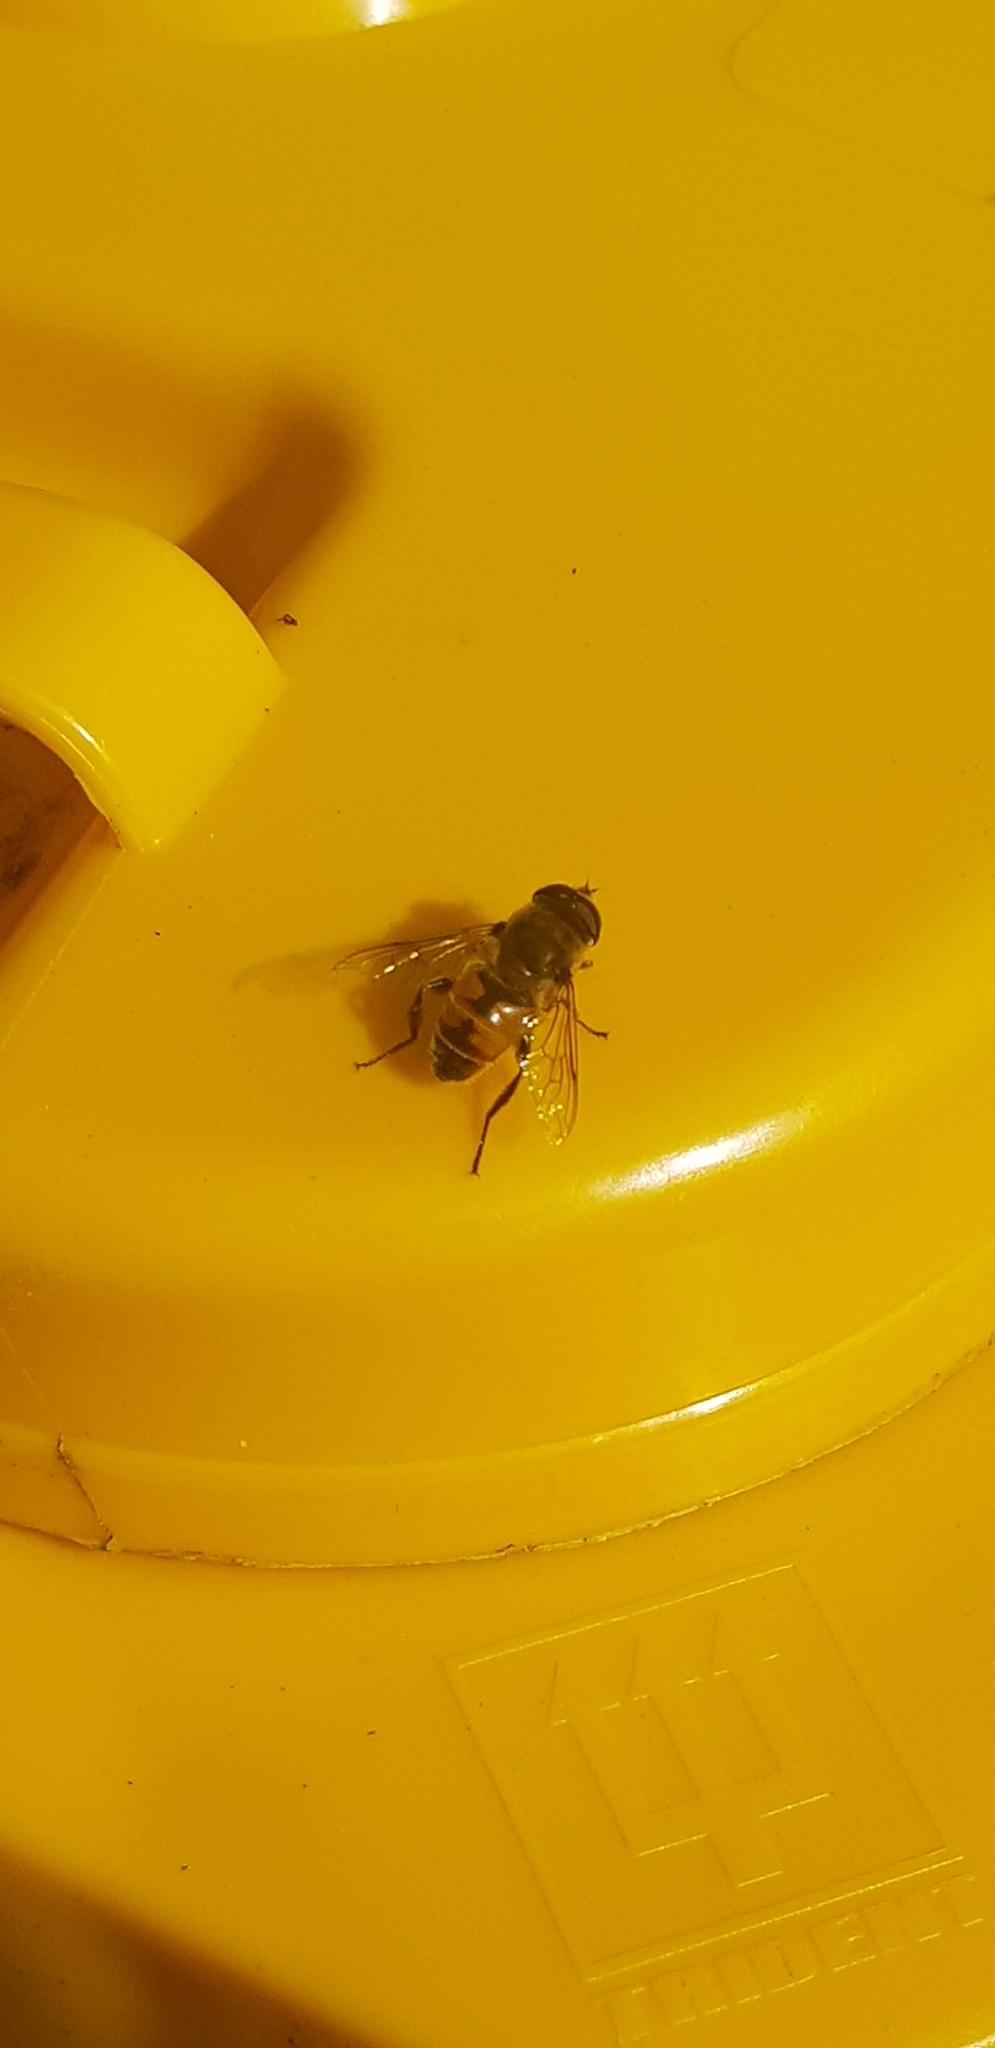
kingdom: Animalia
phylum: Arthropoda
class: Insecta
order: Diptera
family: Syrphidae
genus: Eristalis
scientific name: Eristalis tenax
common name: Drone fly
